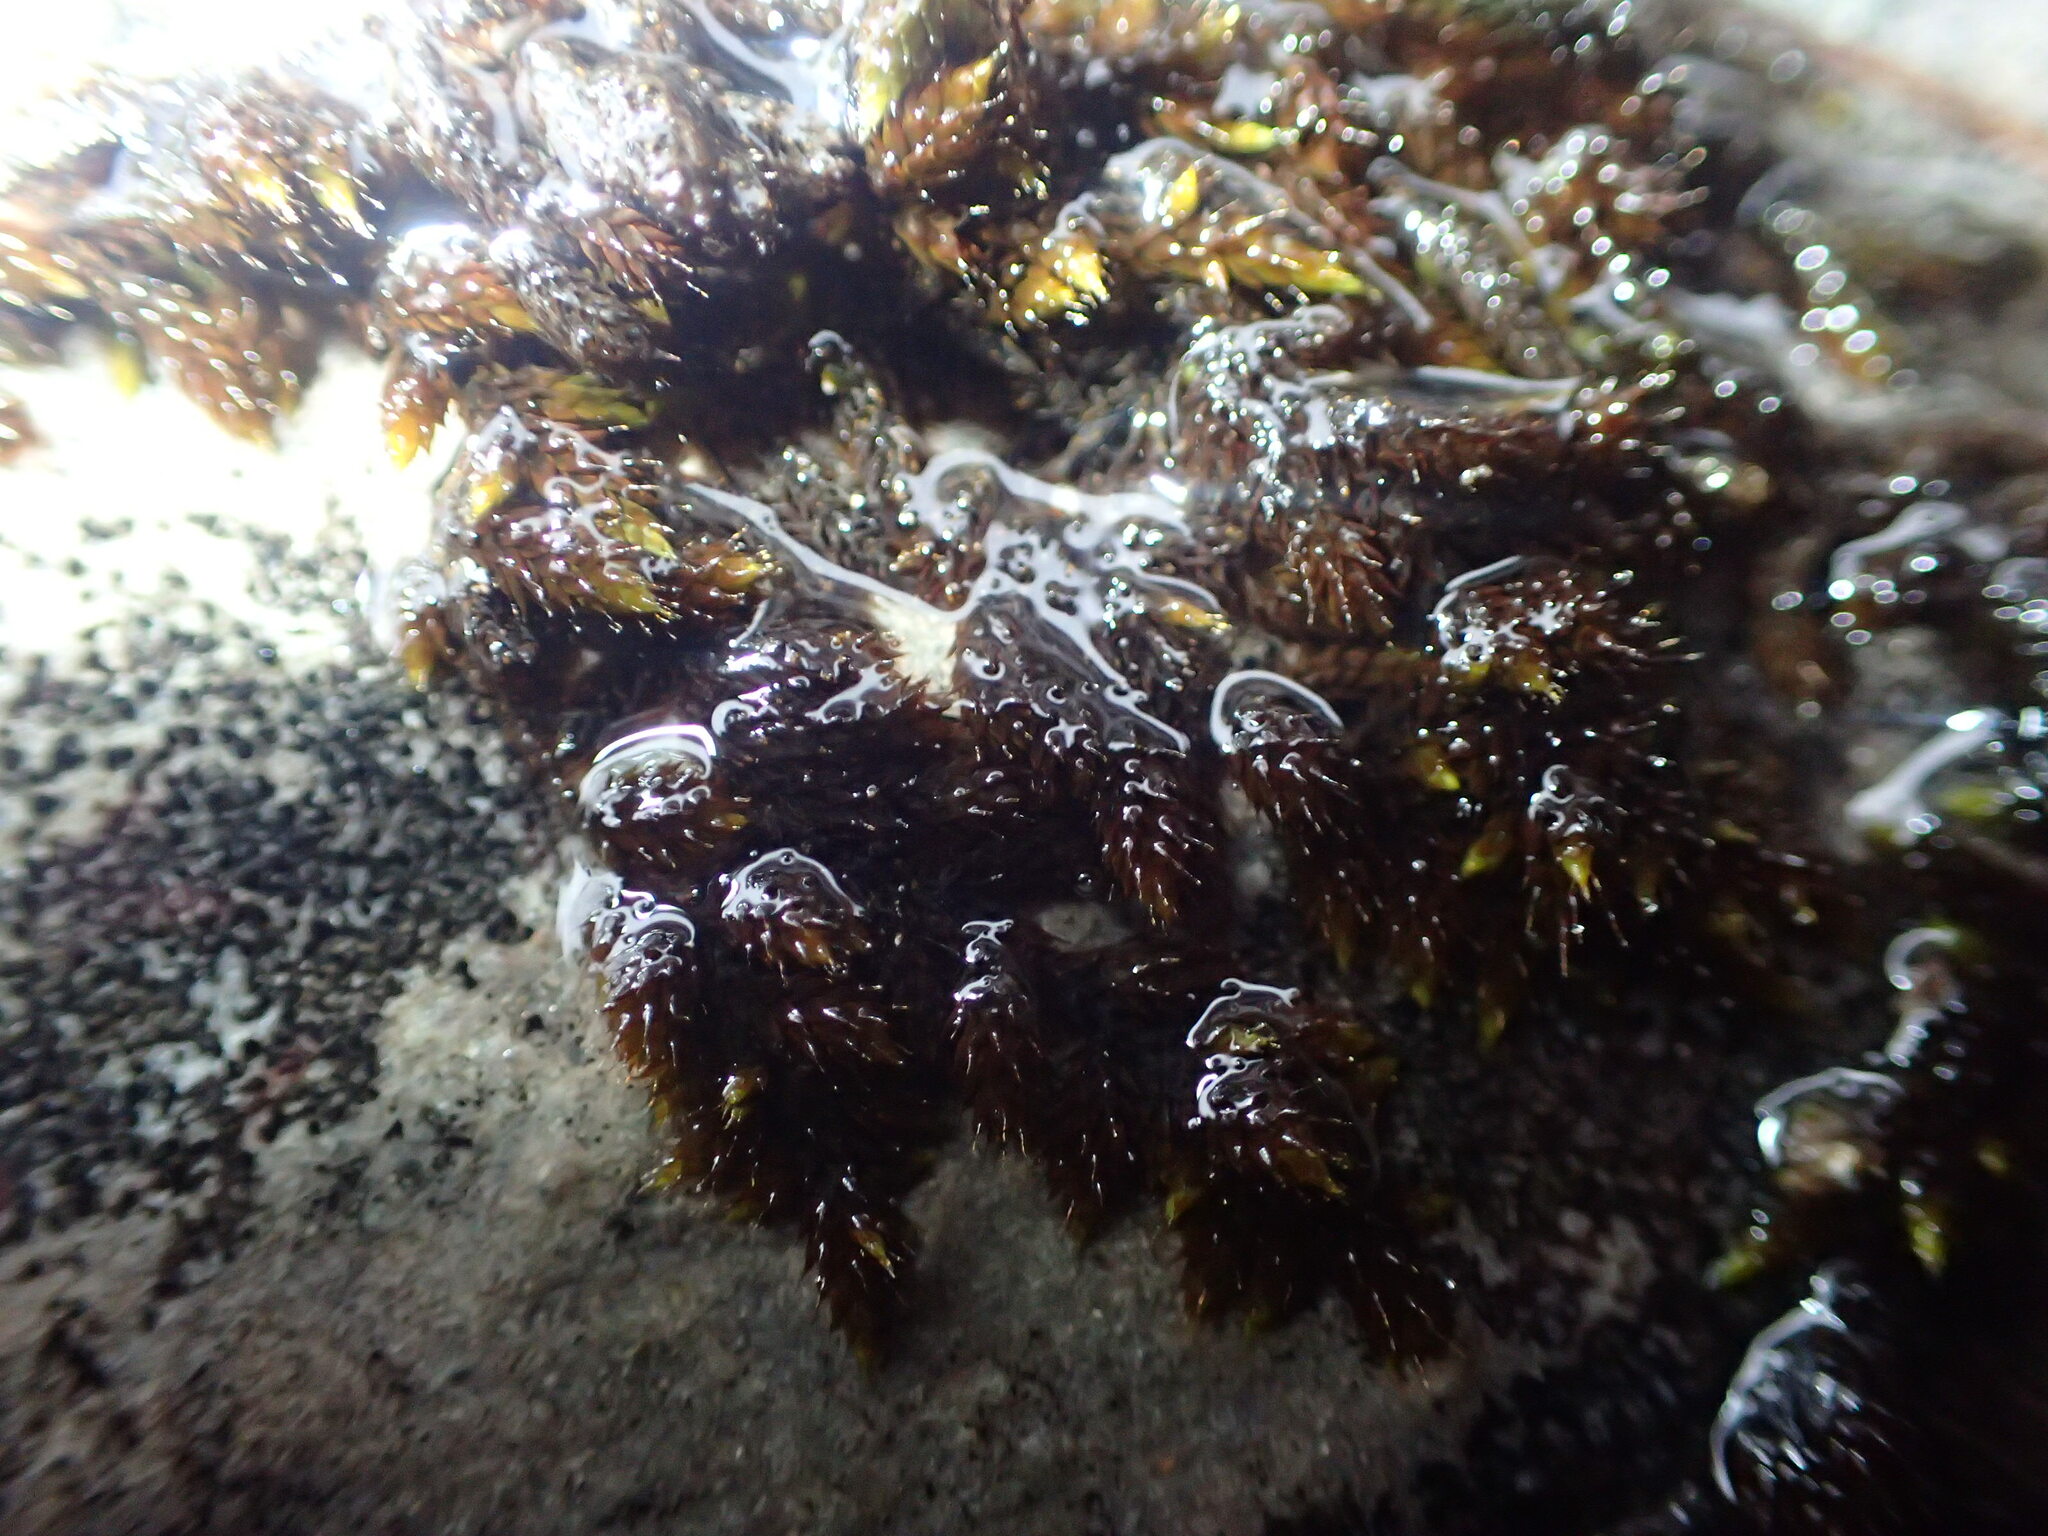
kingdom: Plantae
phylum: Bryophyta
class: Bryopsida
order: Hedwigiales
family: Hedwigiaceae
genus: Rhacocarpus
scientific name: Rhacocarpus purpurascens
